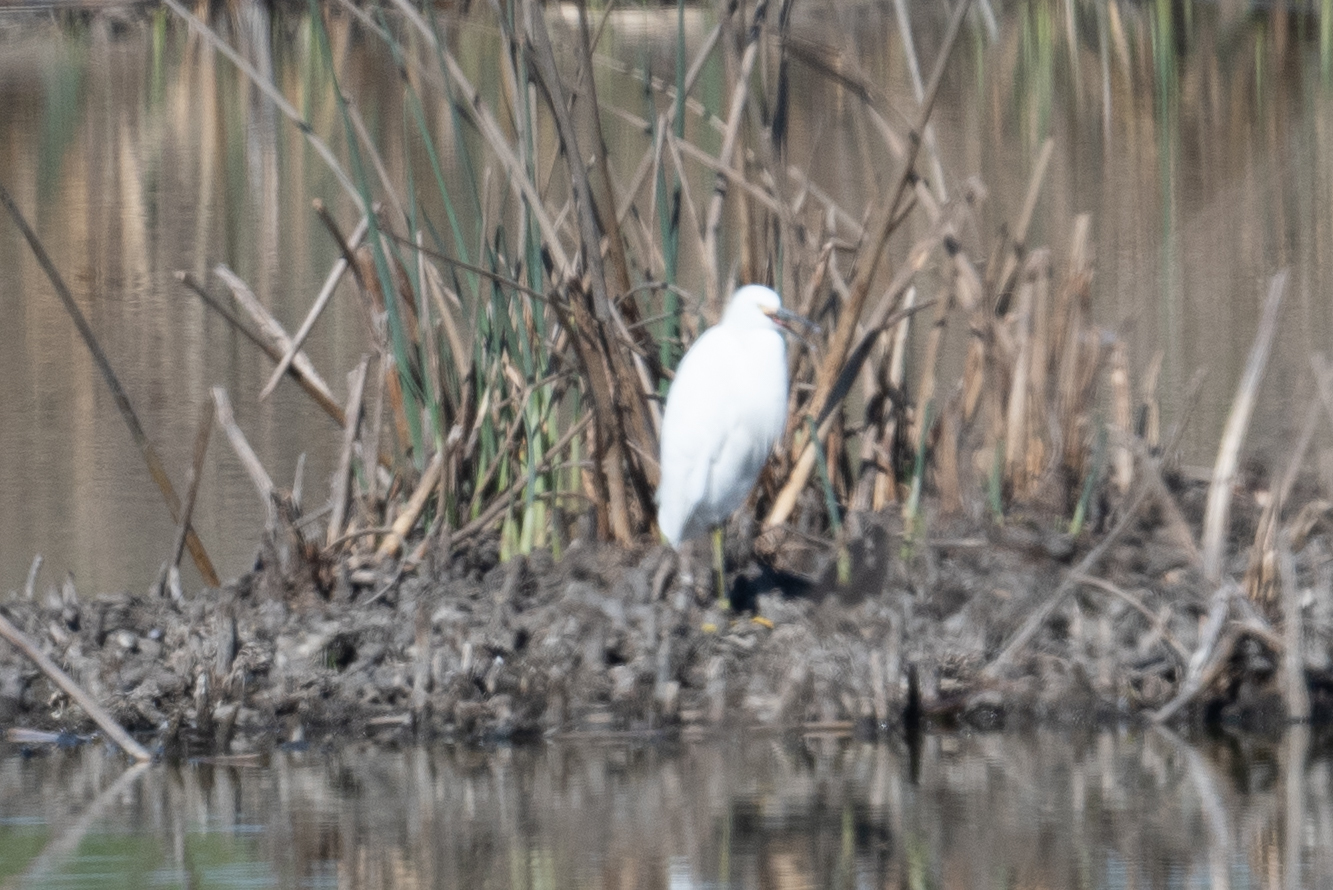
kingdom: Animalia
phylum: Chordata
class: Aves
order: Pelecaniformes
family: Ardeidae
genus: Egretta
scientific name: Egretta thula
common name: Snowy egret
